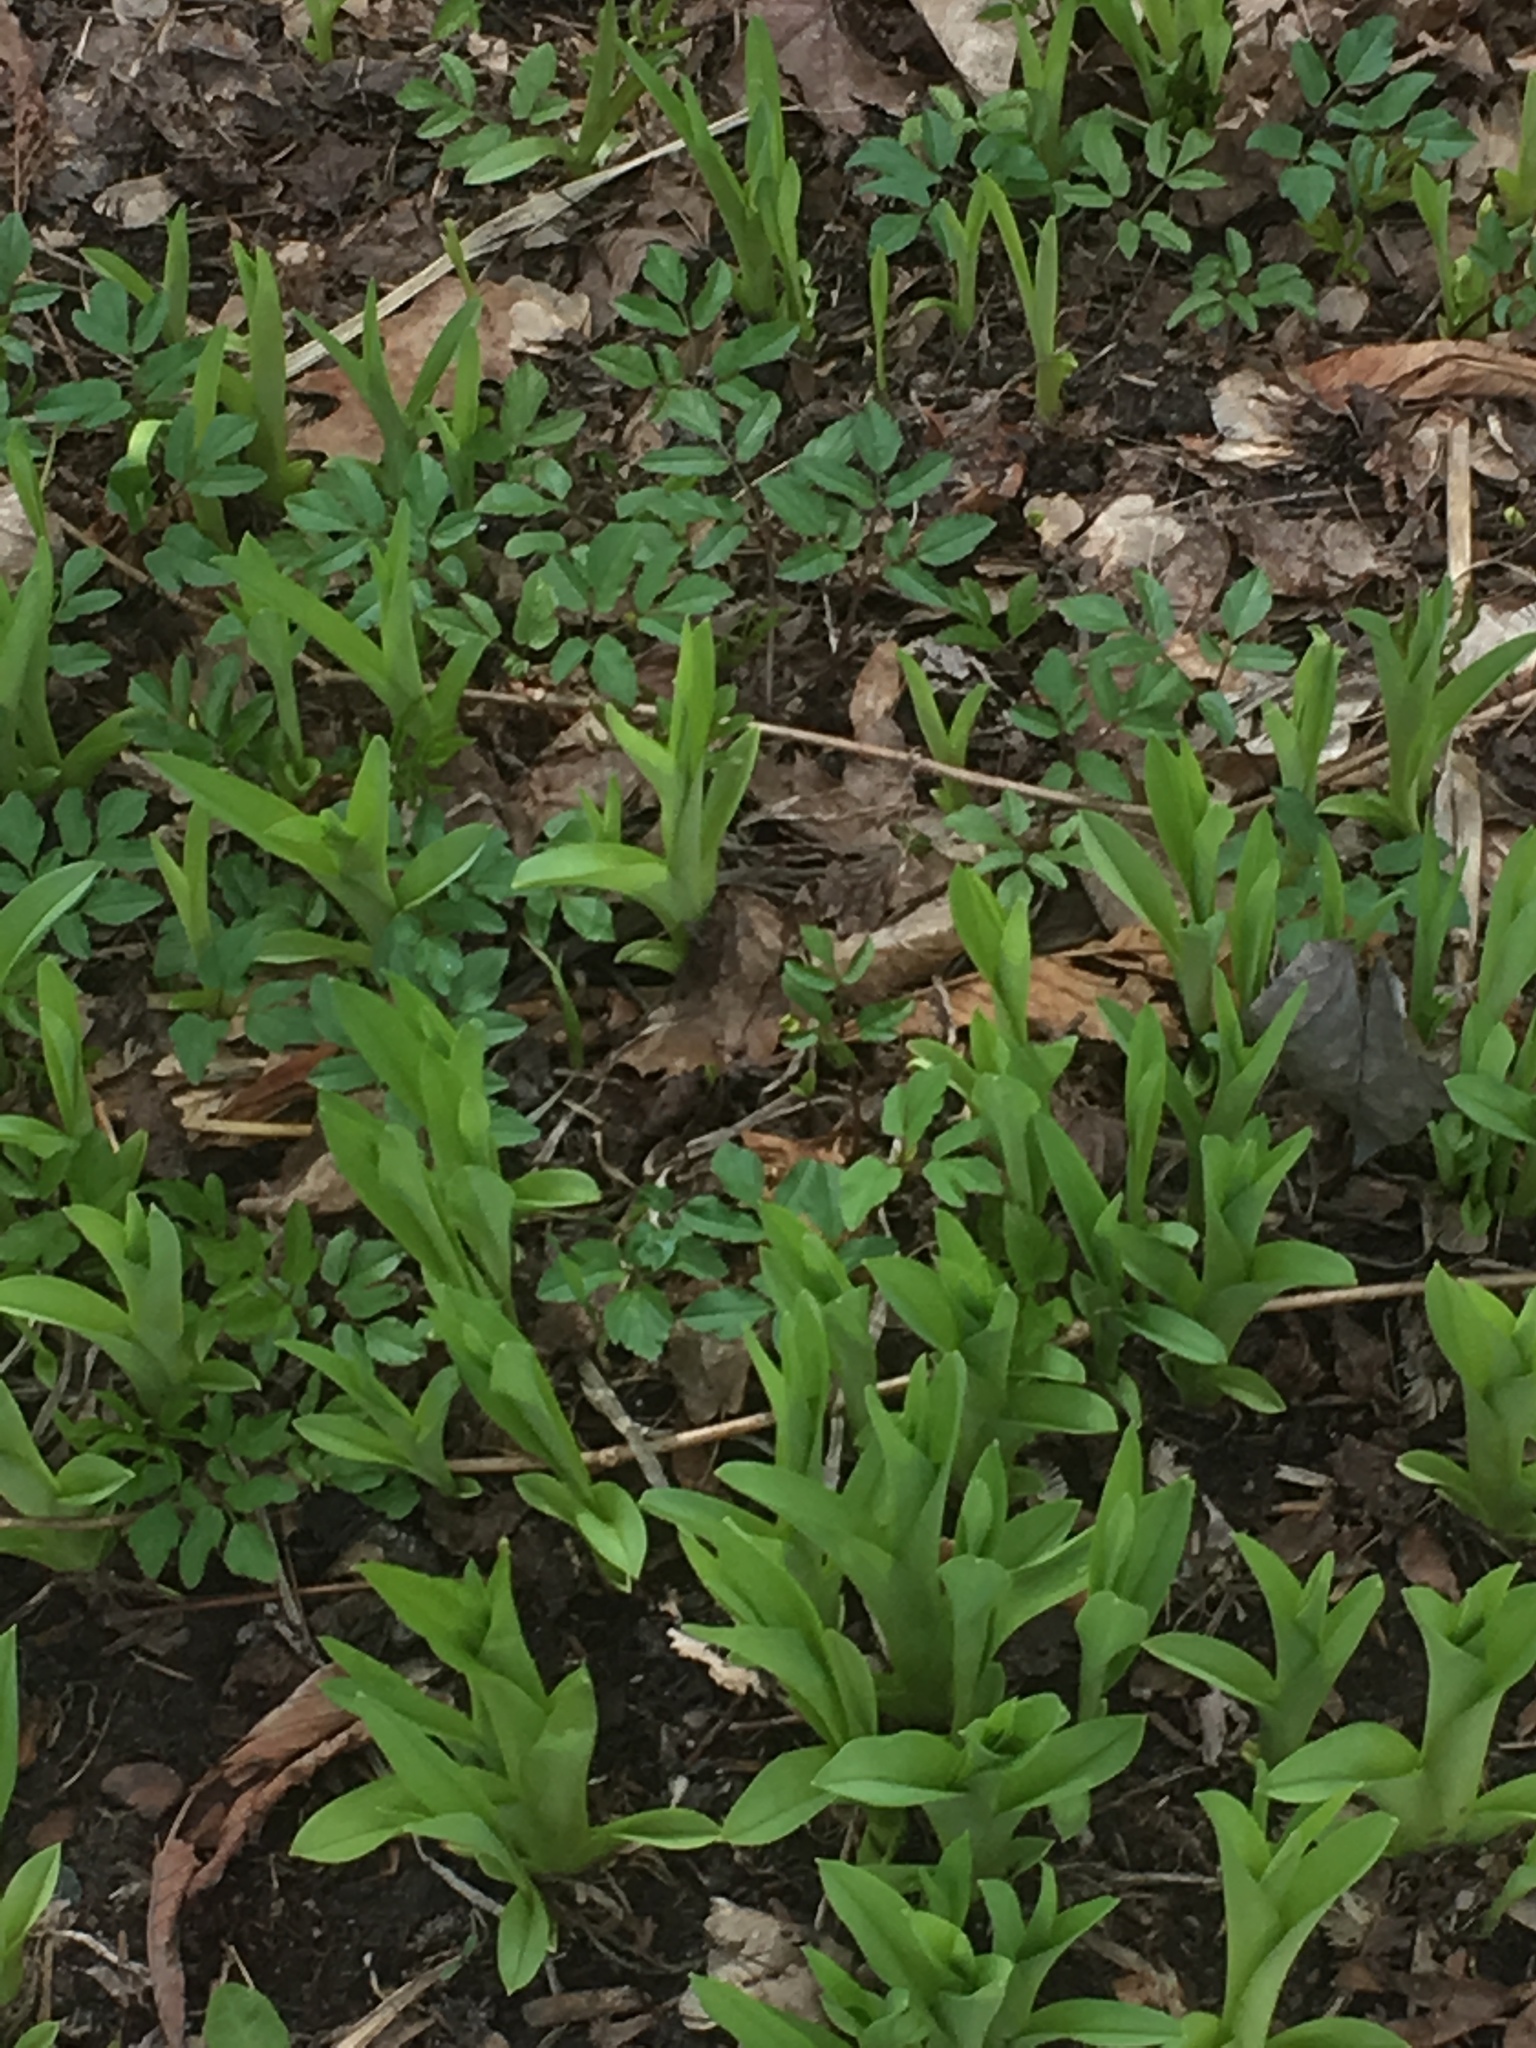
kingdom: Plantae
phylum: Tracheophyta
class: Magnoliopsida
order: Apiales
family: Apiaceae
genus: Aegopodium
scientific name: Aegopodium podagraria
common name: Ground-elder
